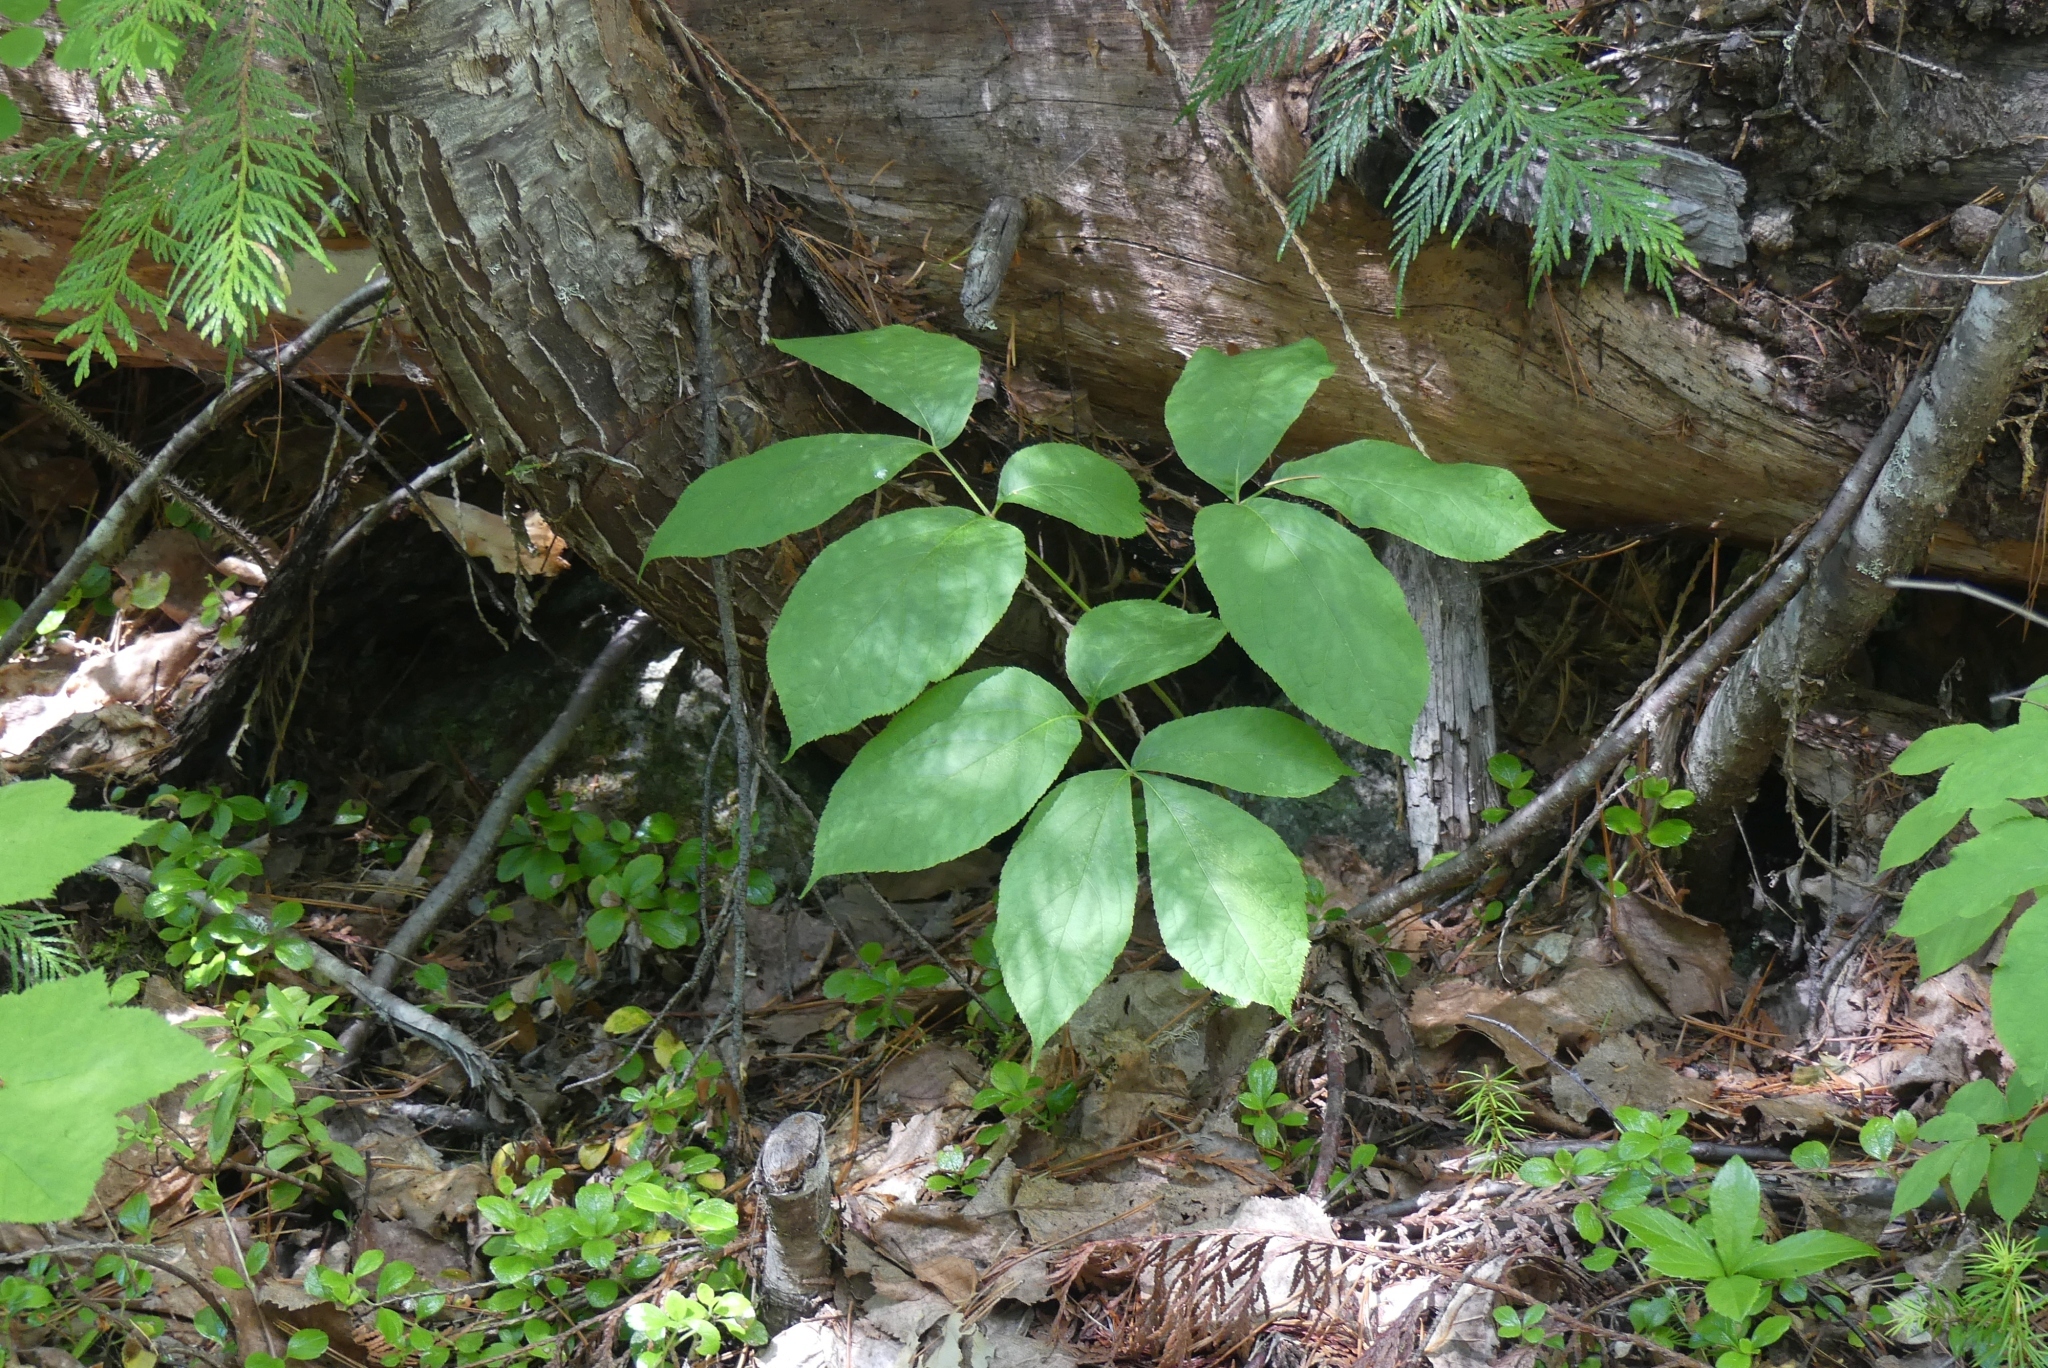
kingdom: Plantae
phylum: Tracheophyta
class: Magnoliopsida
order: Apiales
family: Araliaceae
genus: Aralia
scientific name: Aralia nudicaulis
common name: Wild sarsaparilla
